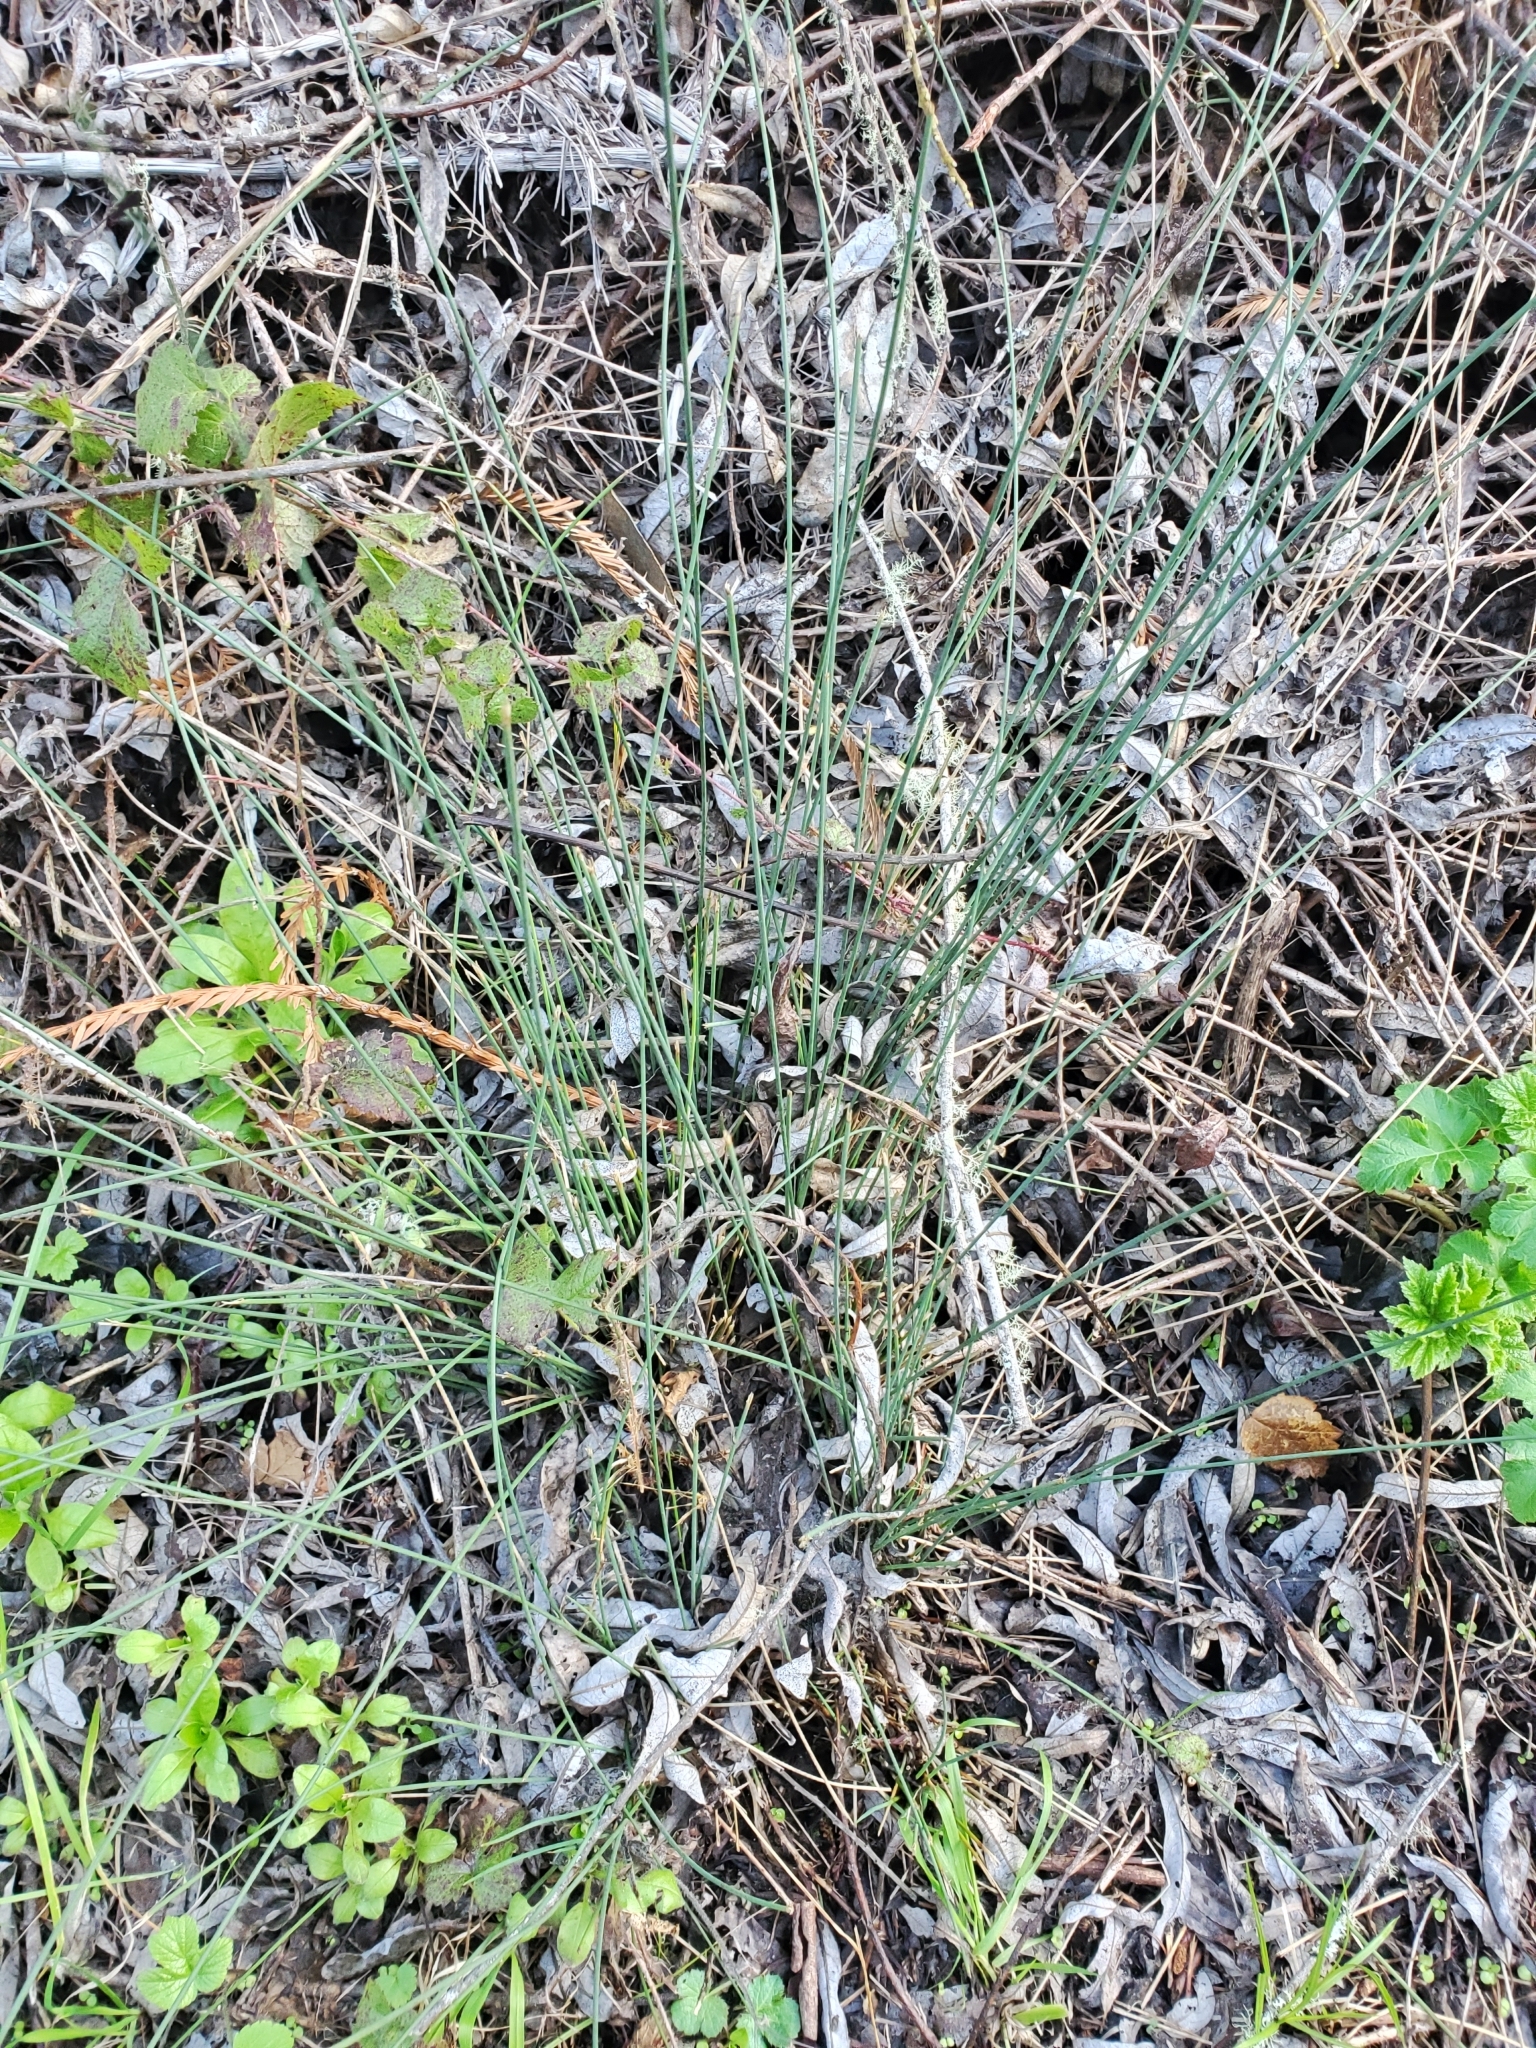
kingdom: Plantae
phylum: Tracheophyta
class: Liliopsida
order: Poales
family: Juncaceae
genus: Juncus
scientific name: Juncus patens
